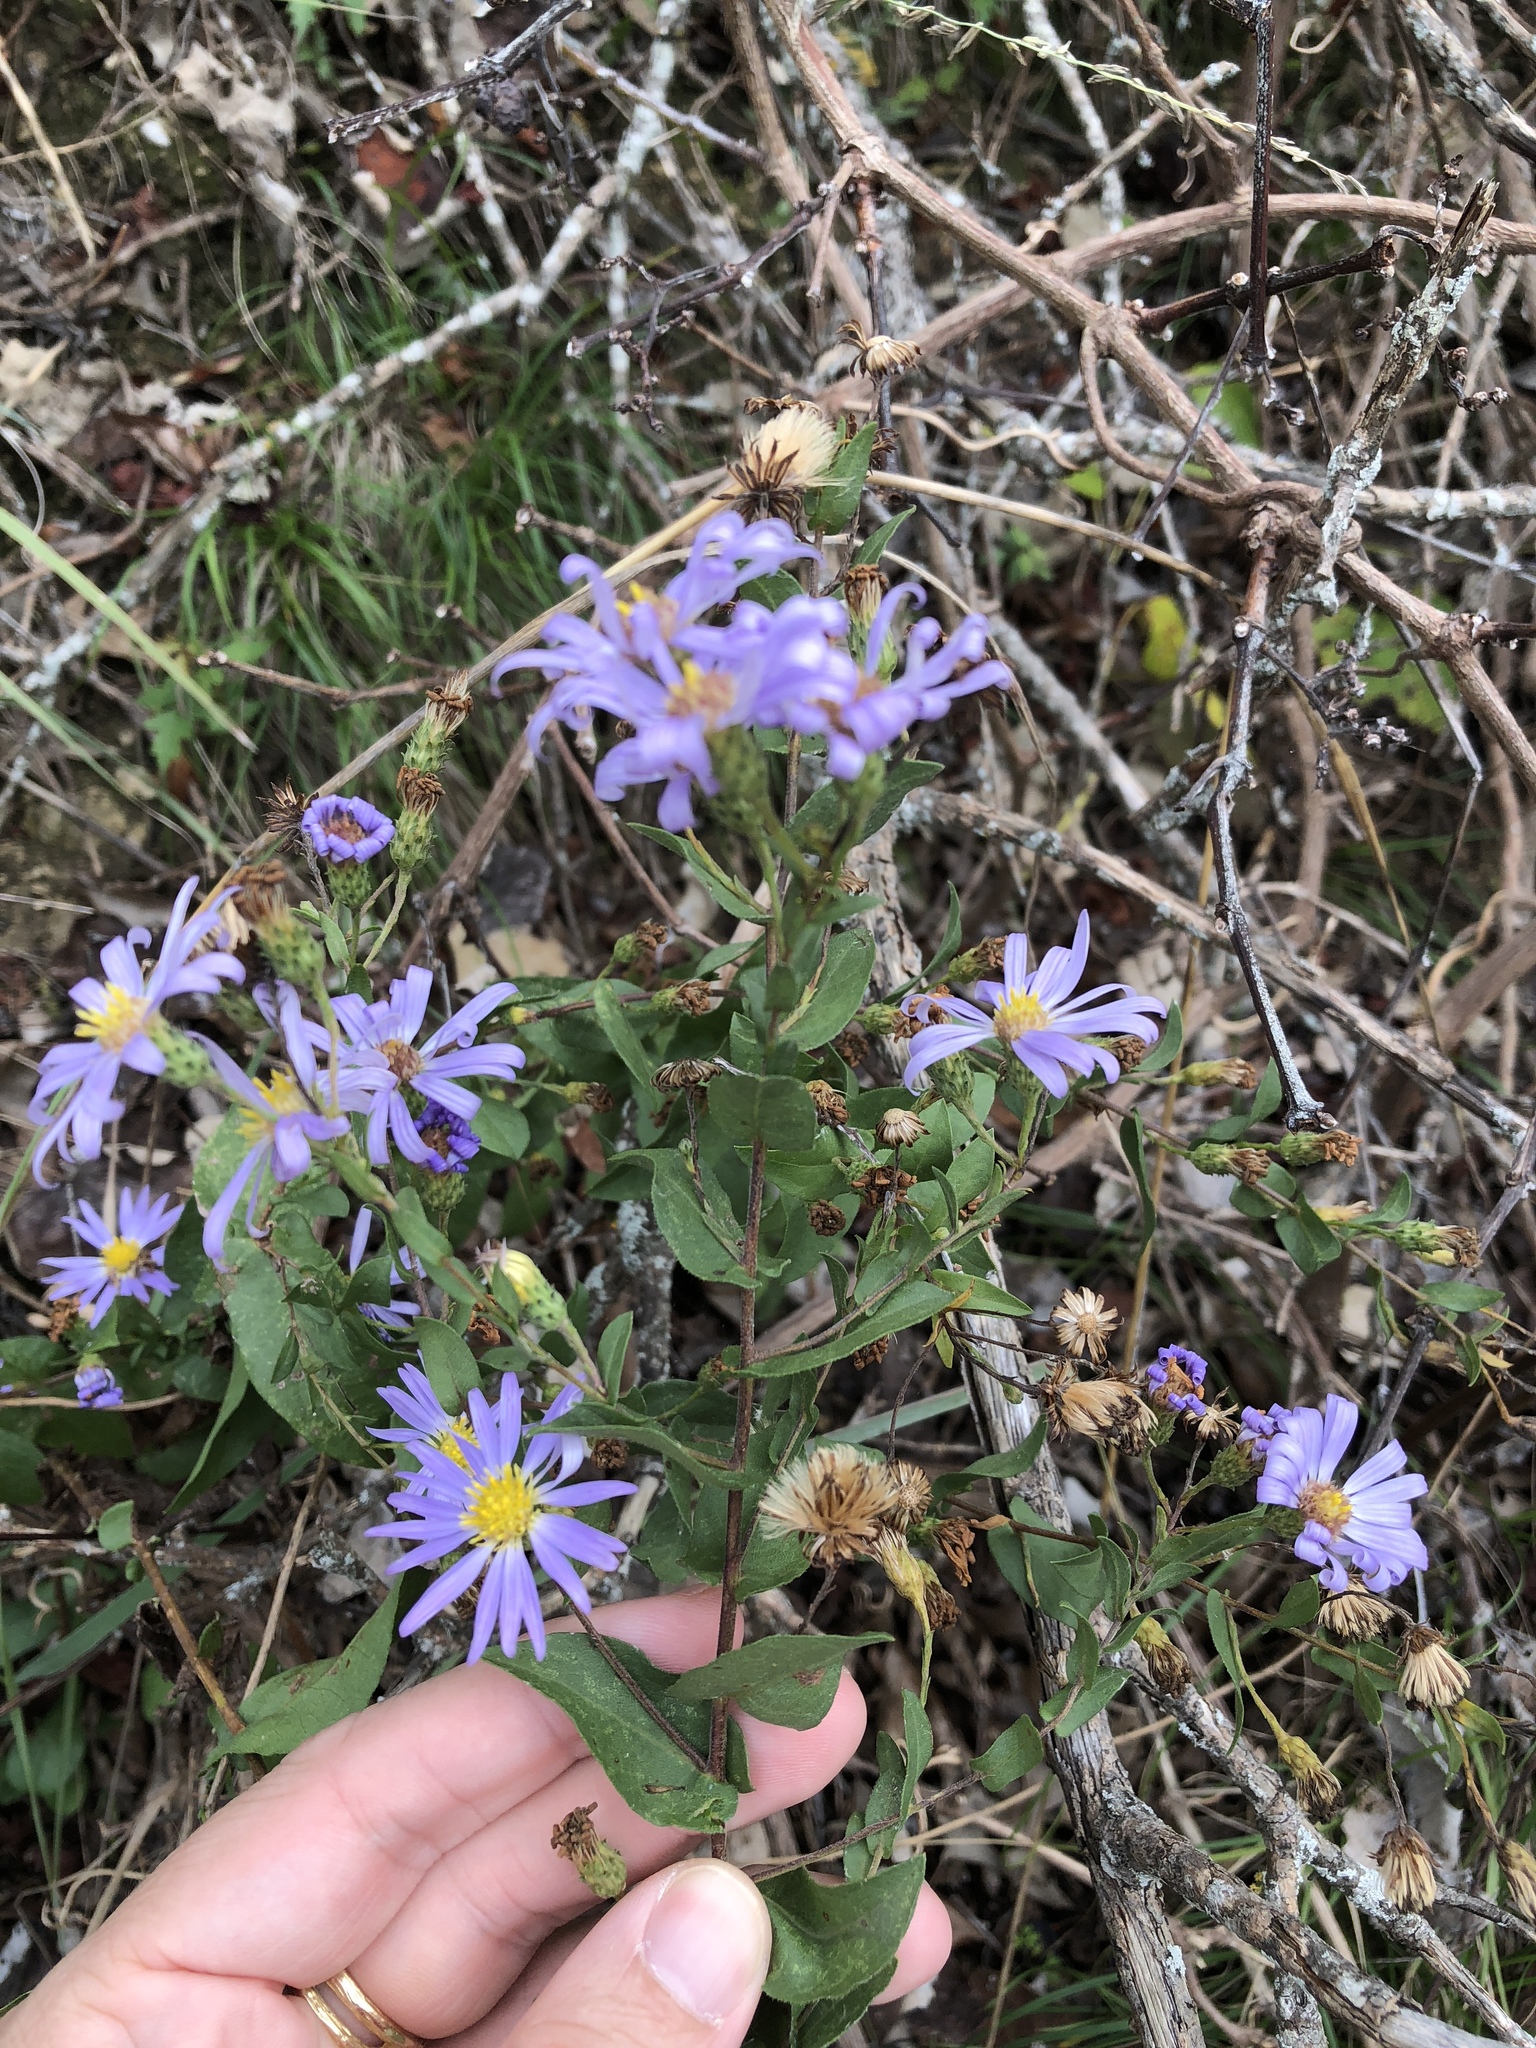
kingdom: Plantae
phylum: Tracheophyta
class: Magnoliopsida
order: Asterales
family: Asteraceae
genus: Symphyotrichum
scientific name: Symphyotrichum patens
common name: Late purple aster
